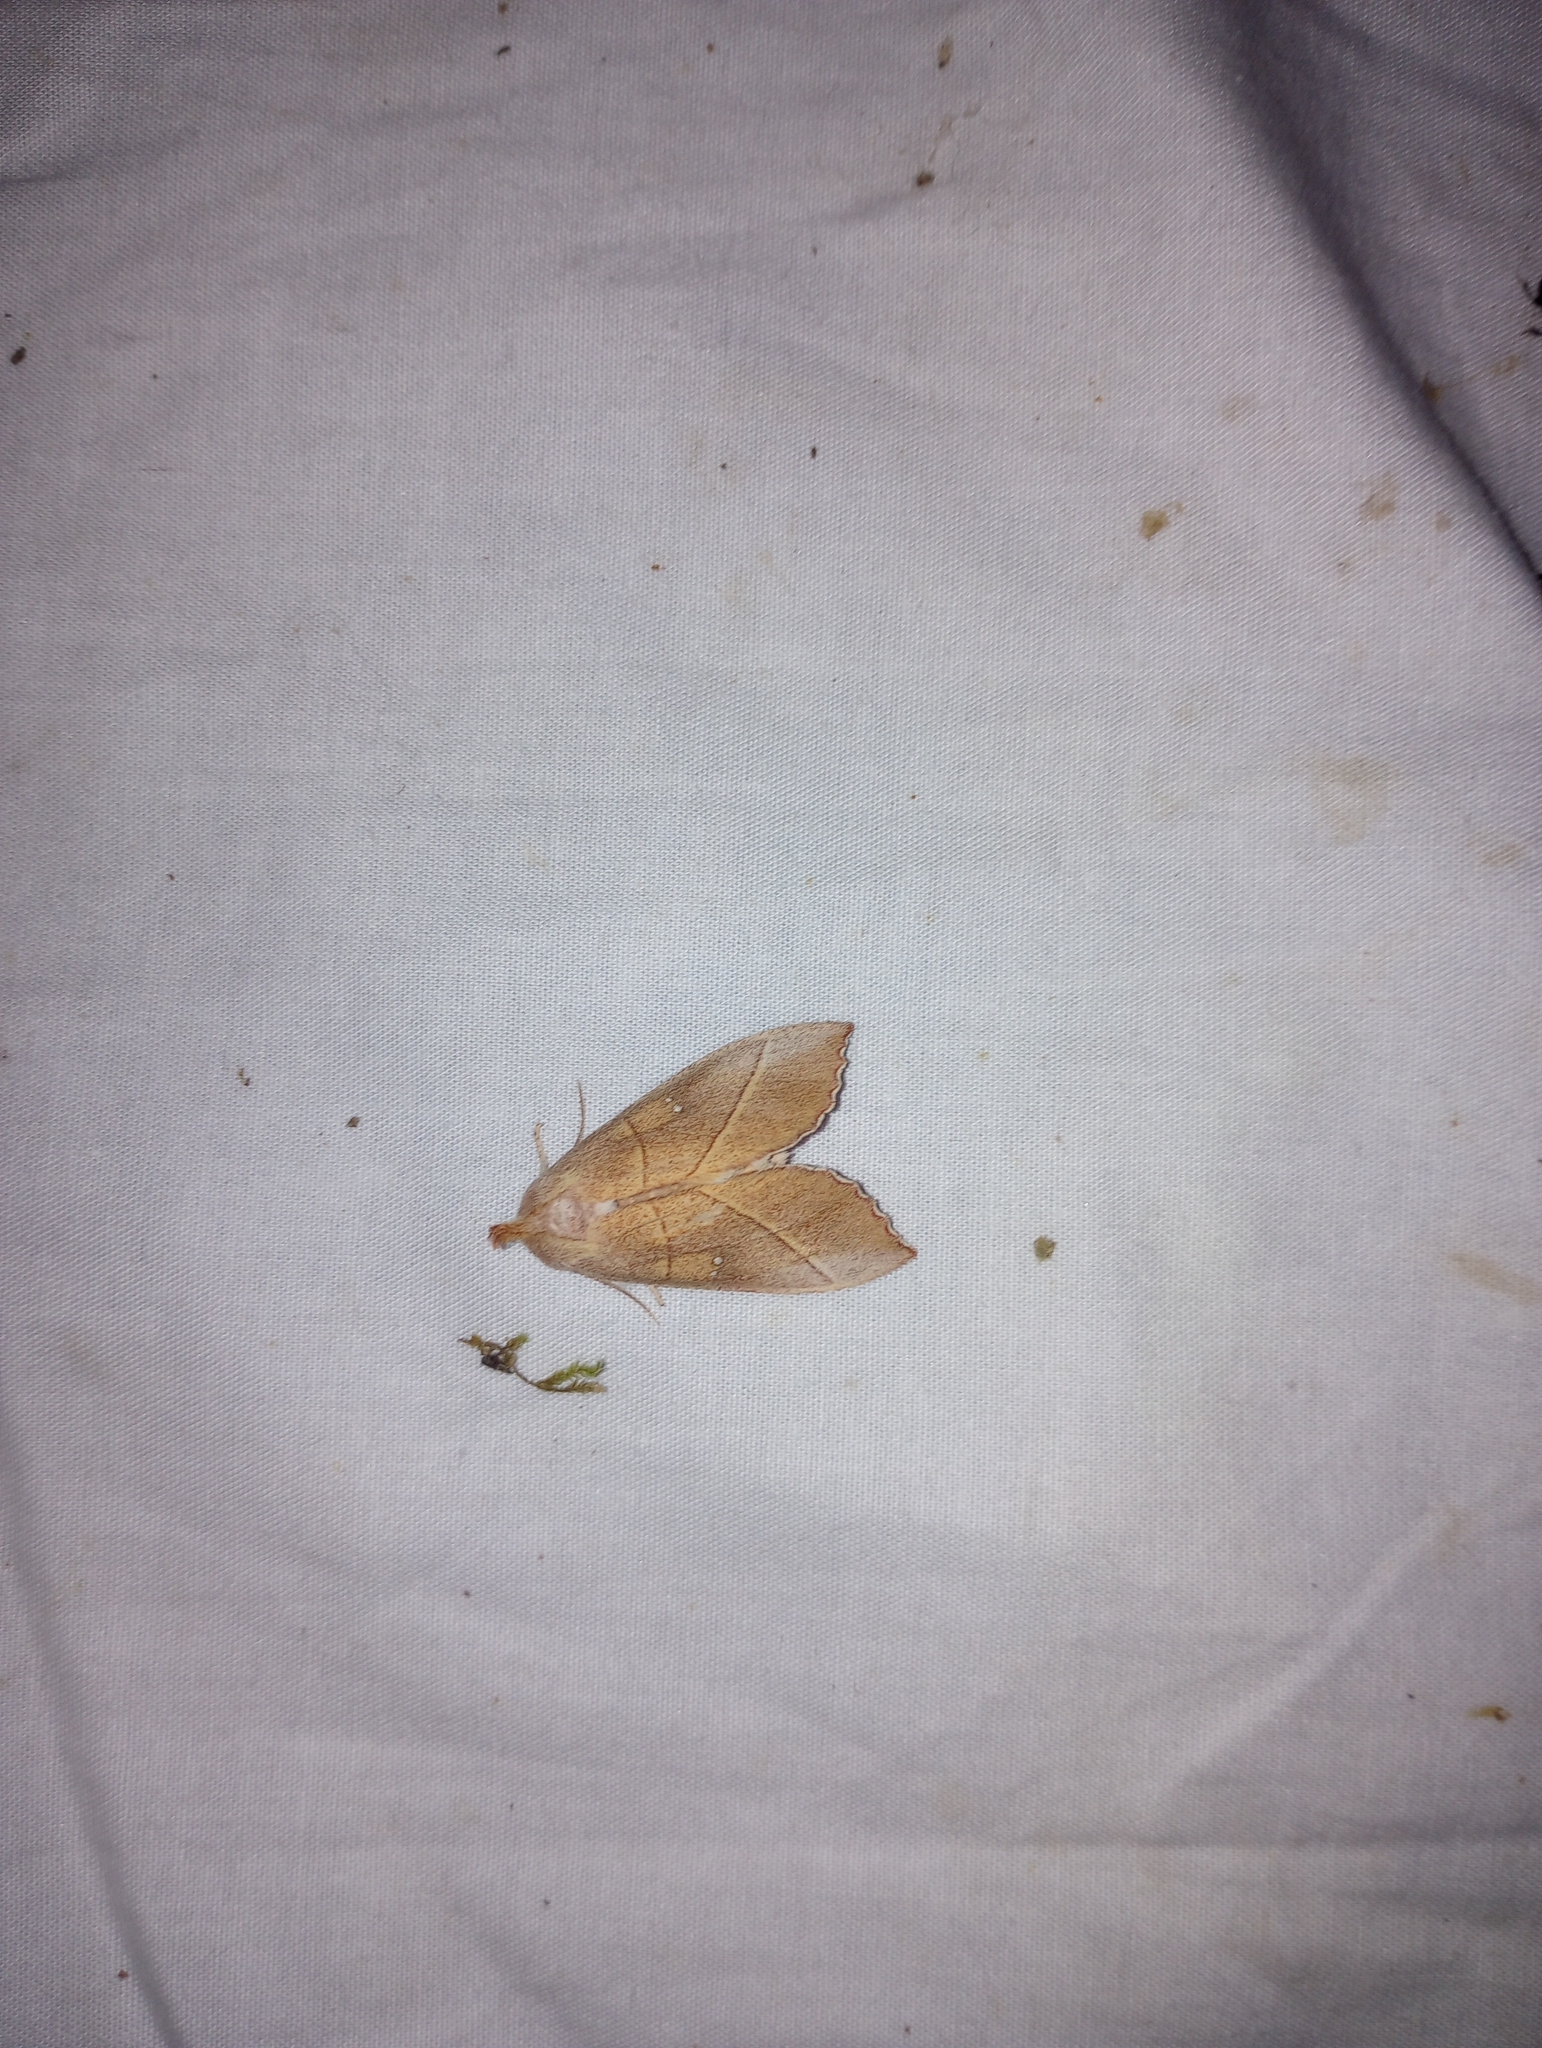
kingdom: Animalia
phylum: Arthropoda
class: Insecta
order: Lepidoptera
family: Notodontidae
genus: Nadata
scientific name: Nadata gibbosa
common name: White-dotted prominent
